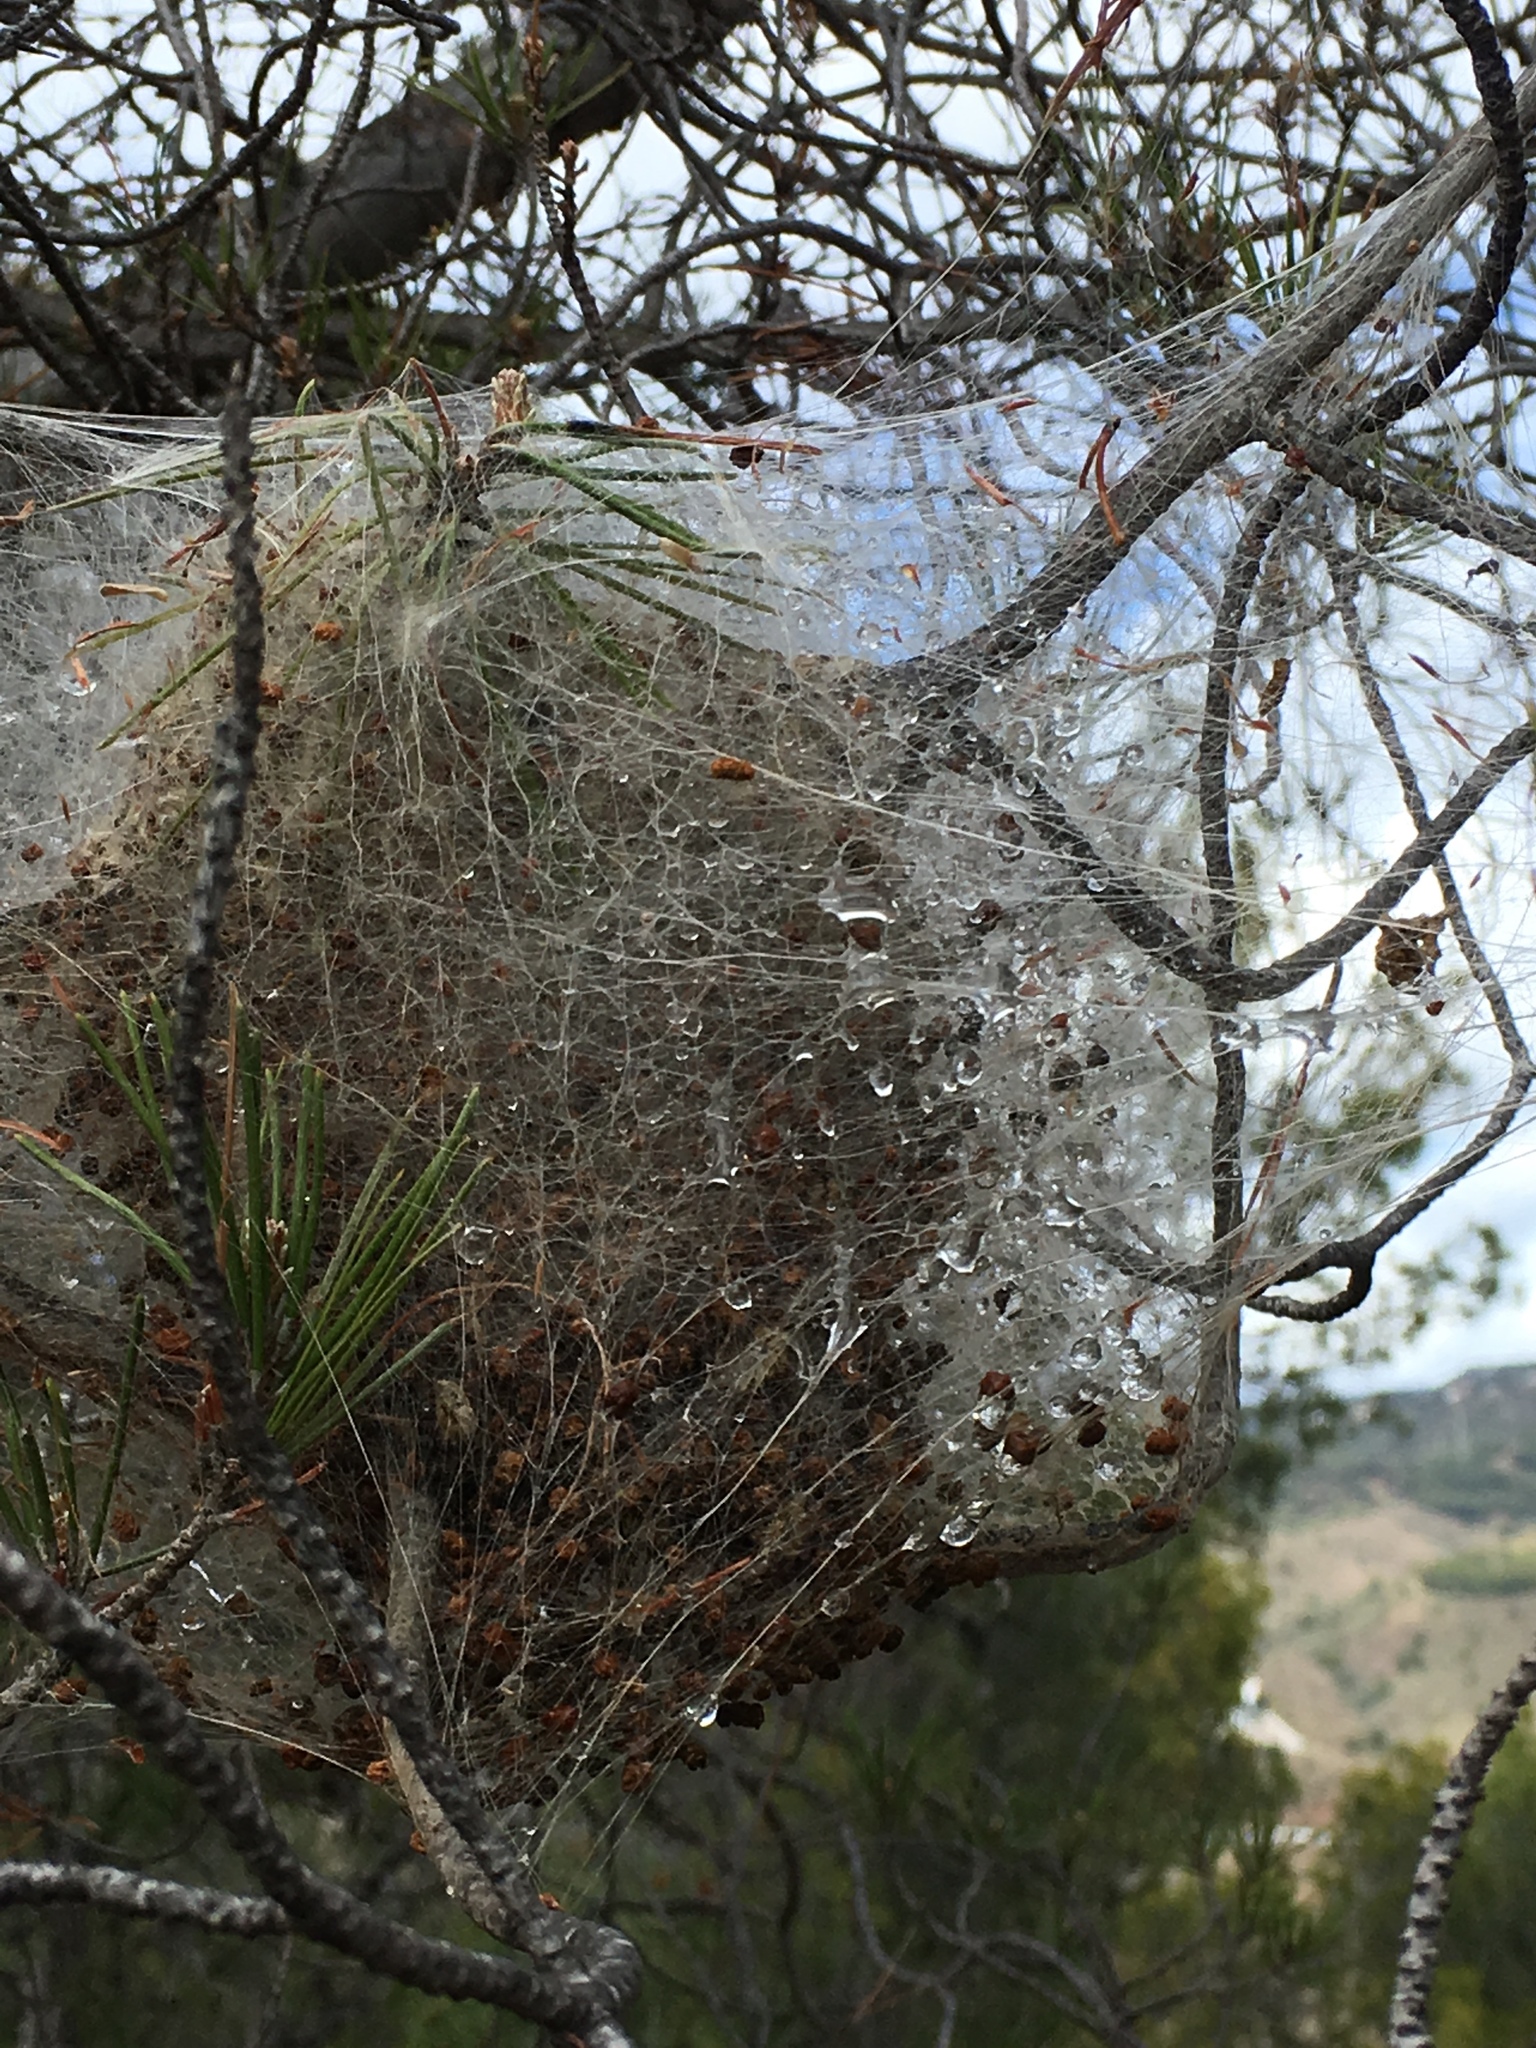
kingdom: Animalia
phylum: Arthropoda
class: Insecta
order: Lepidoptera
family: Notodontidae
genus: Thaumetopoea
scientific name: Thaumetopoea pityocampa
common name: Pine processionary
